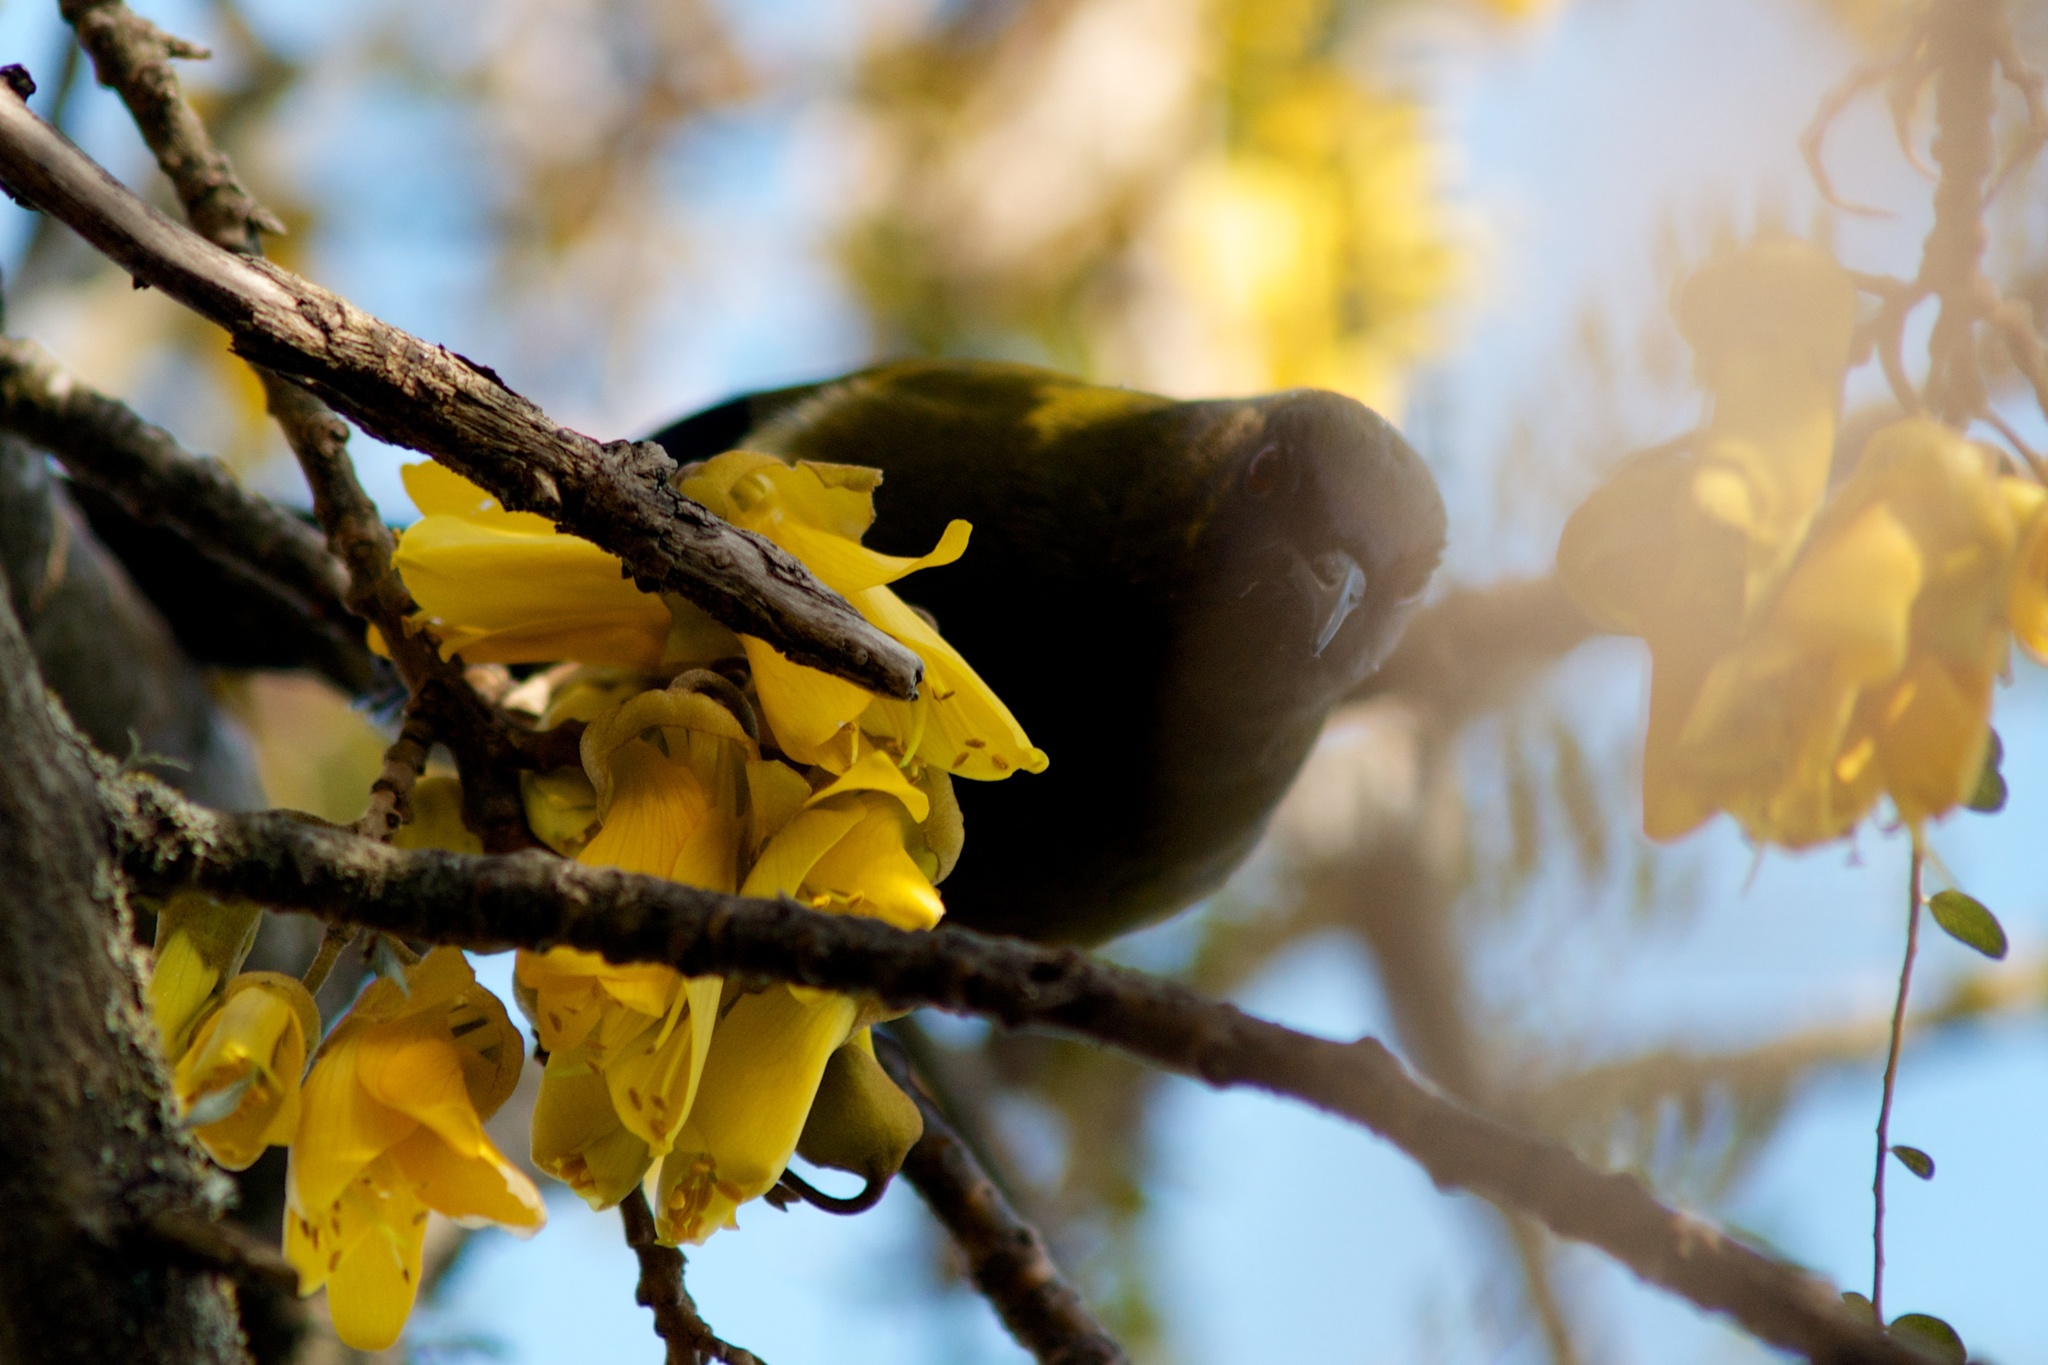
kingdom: Animalia
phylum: Chordata
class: Aves
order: Passeriformes
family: Meliphagidae
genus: Anthornis
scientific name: Anthornis melanura
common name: New zealand bellbird
